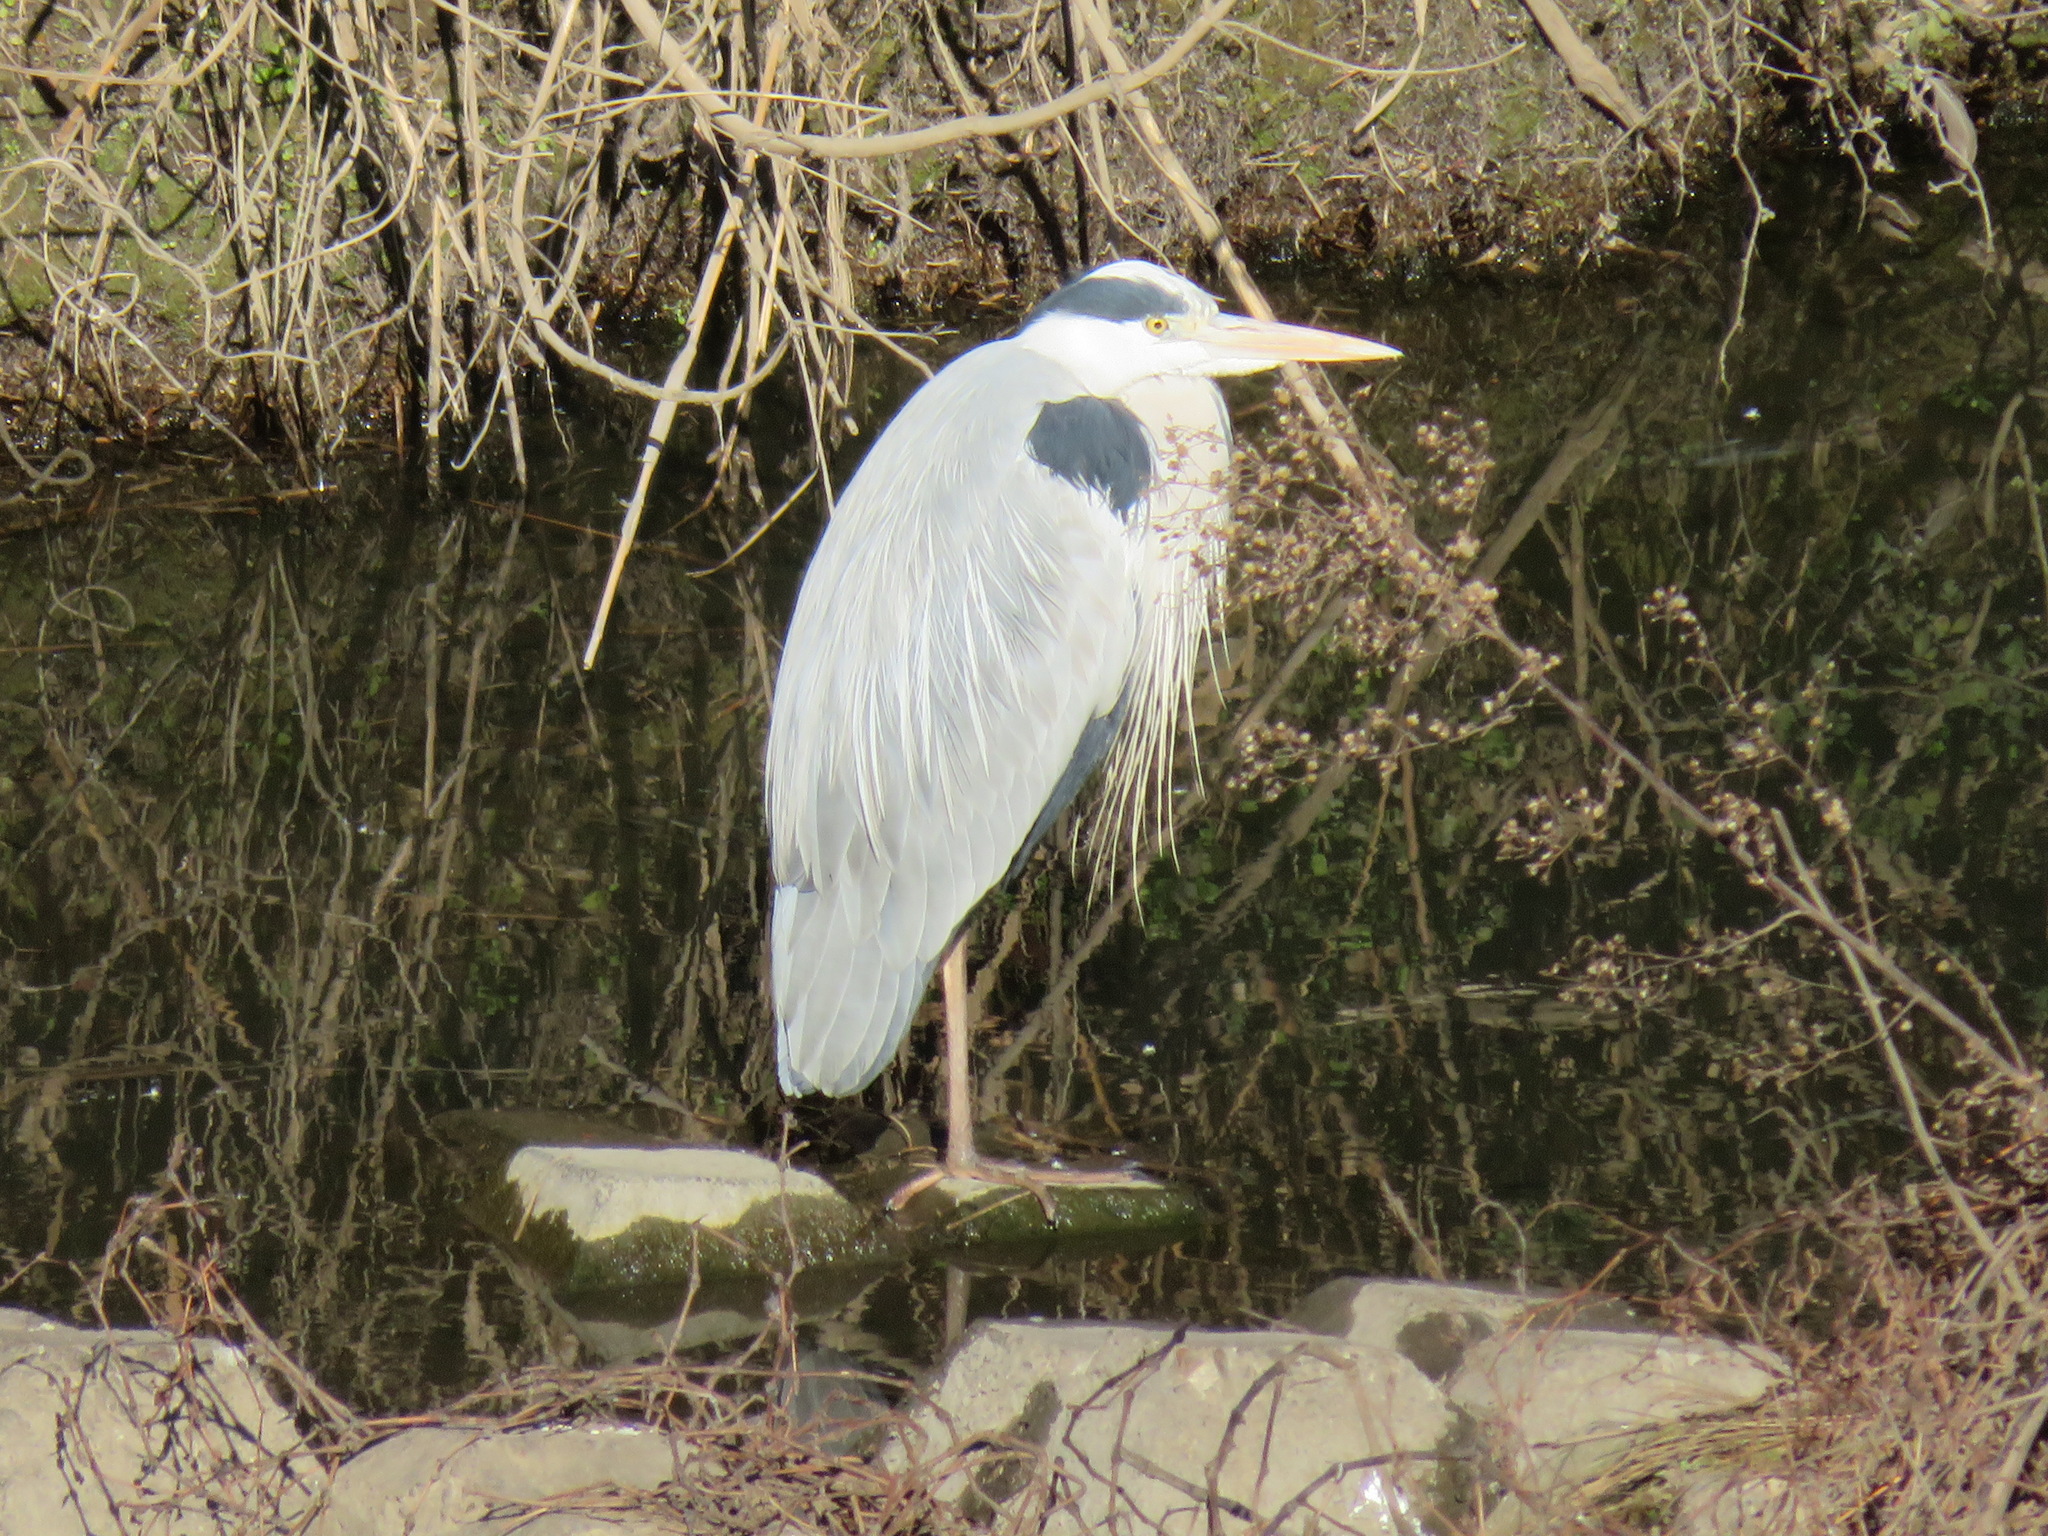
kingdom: Animalia
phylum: Chordata
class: Aves
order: Pelecaniformes
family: Ardeidae
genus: Ardea
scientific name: Ardea cinerea
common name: Grey heron
